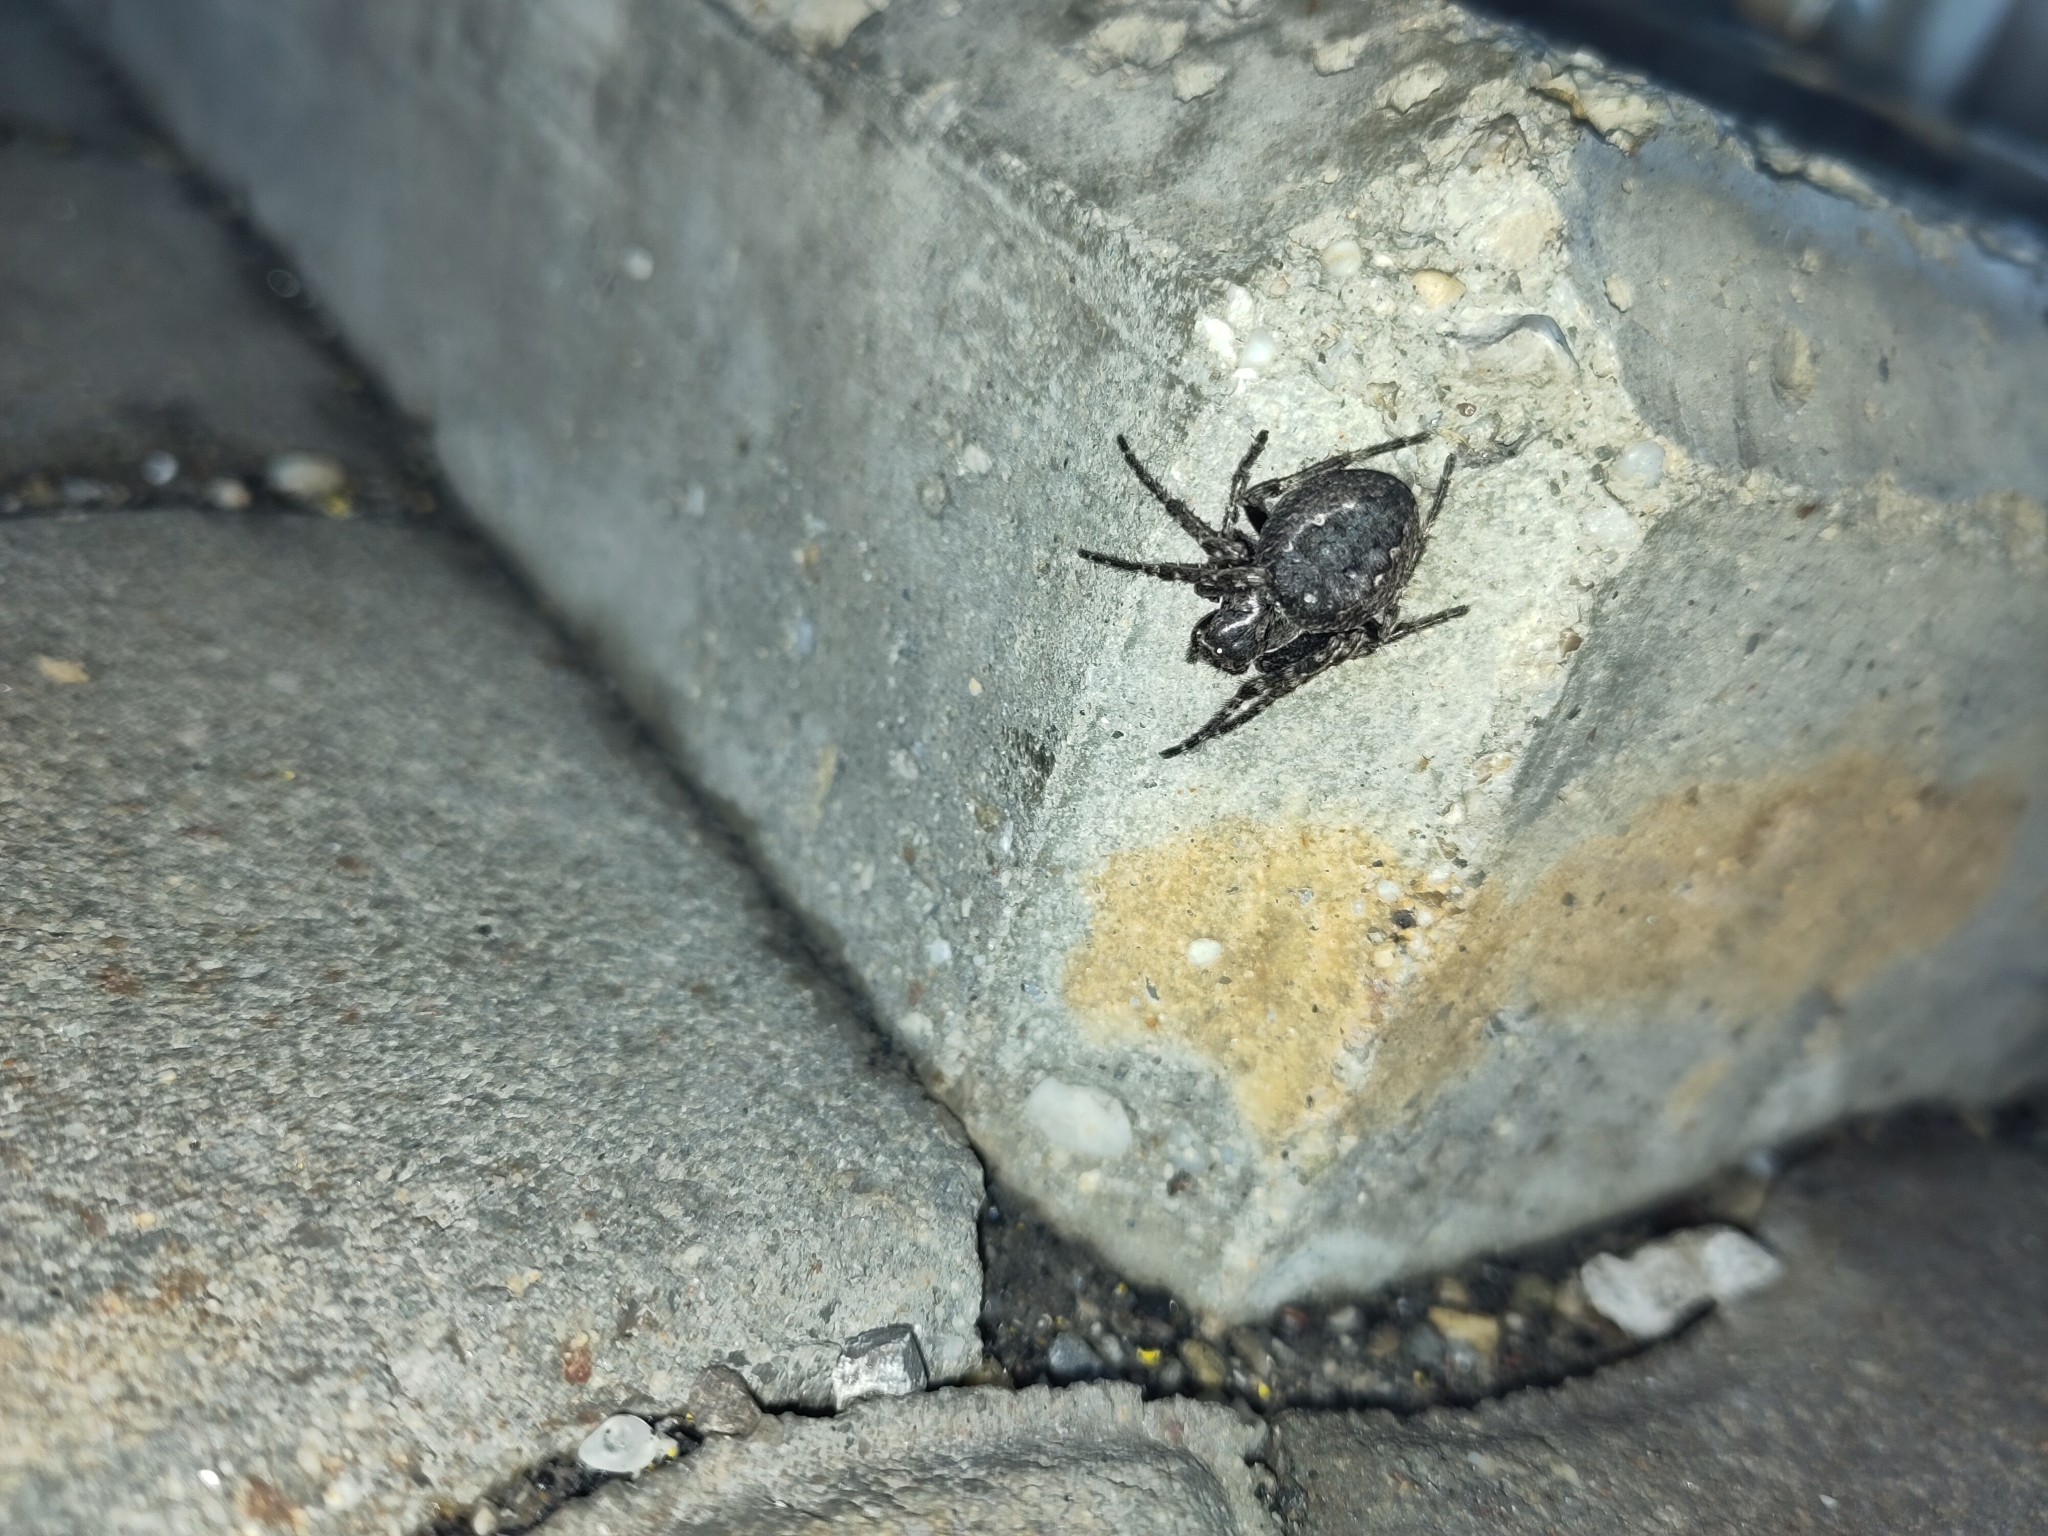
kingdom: Animalia
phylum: Arthropoda
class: Arachnida
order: Araneae
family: Araneidae
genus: Nuctenea
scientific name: Nuctenea umbratica
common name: Toad spider
